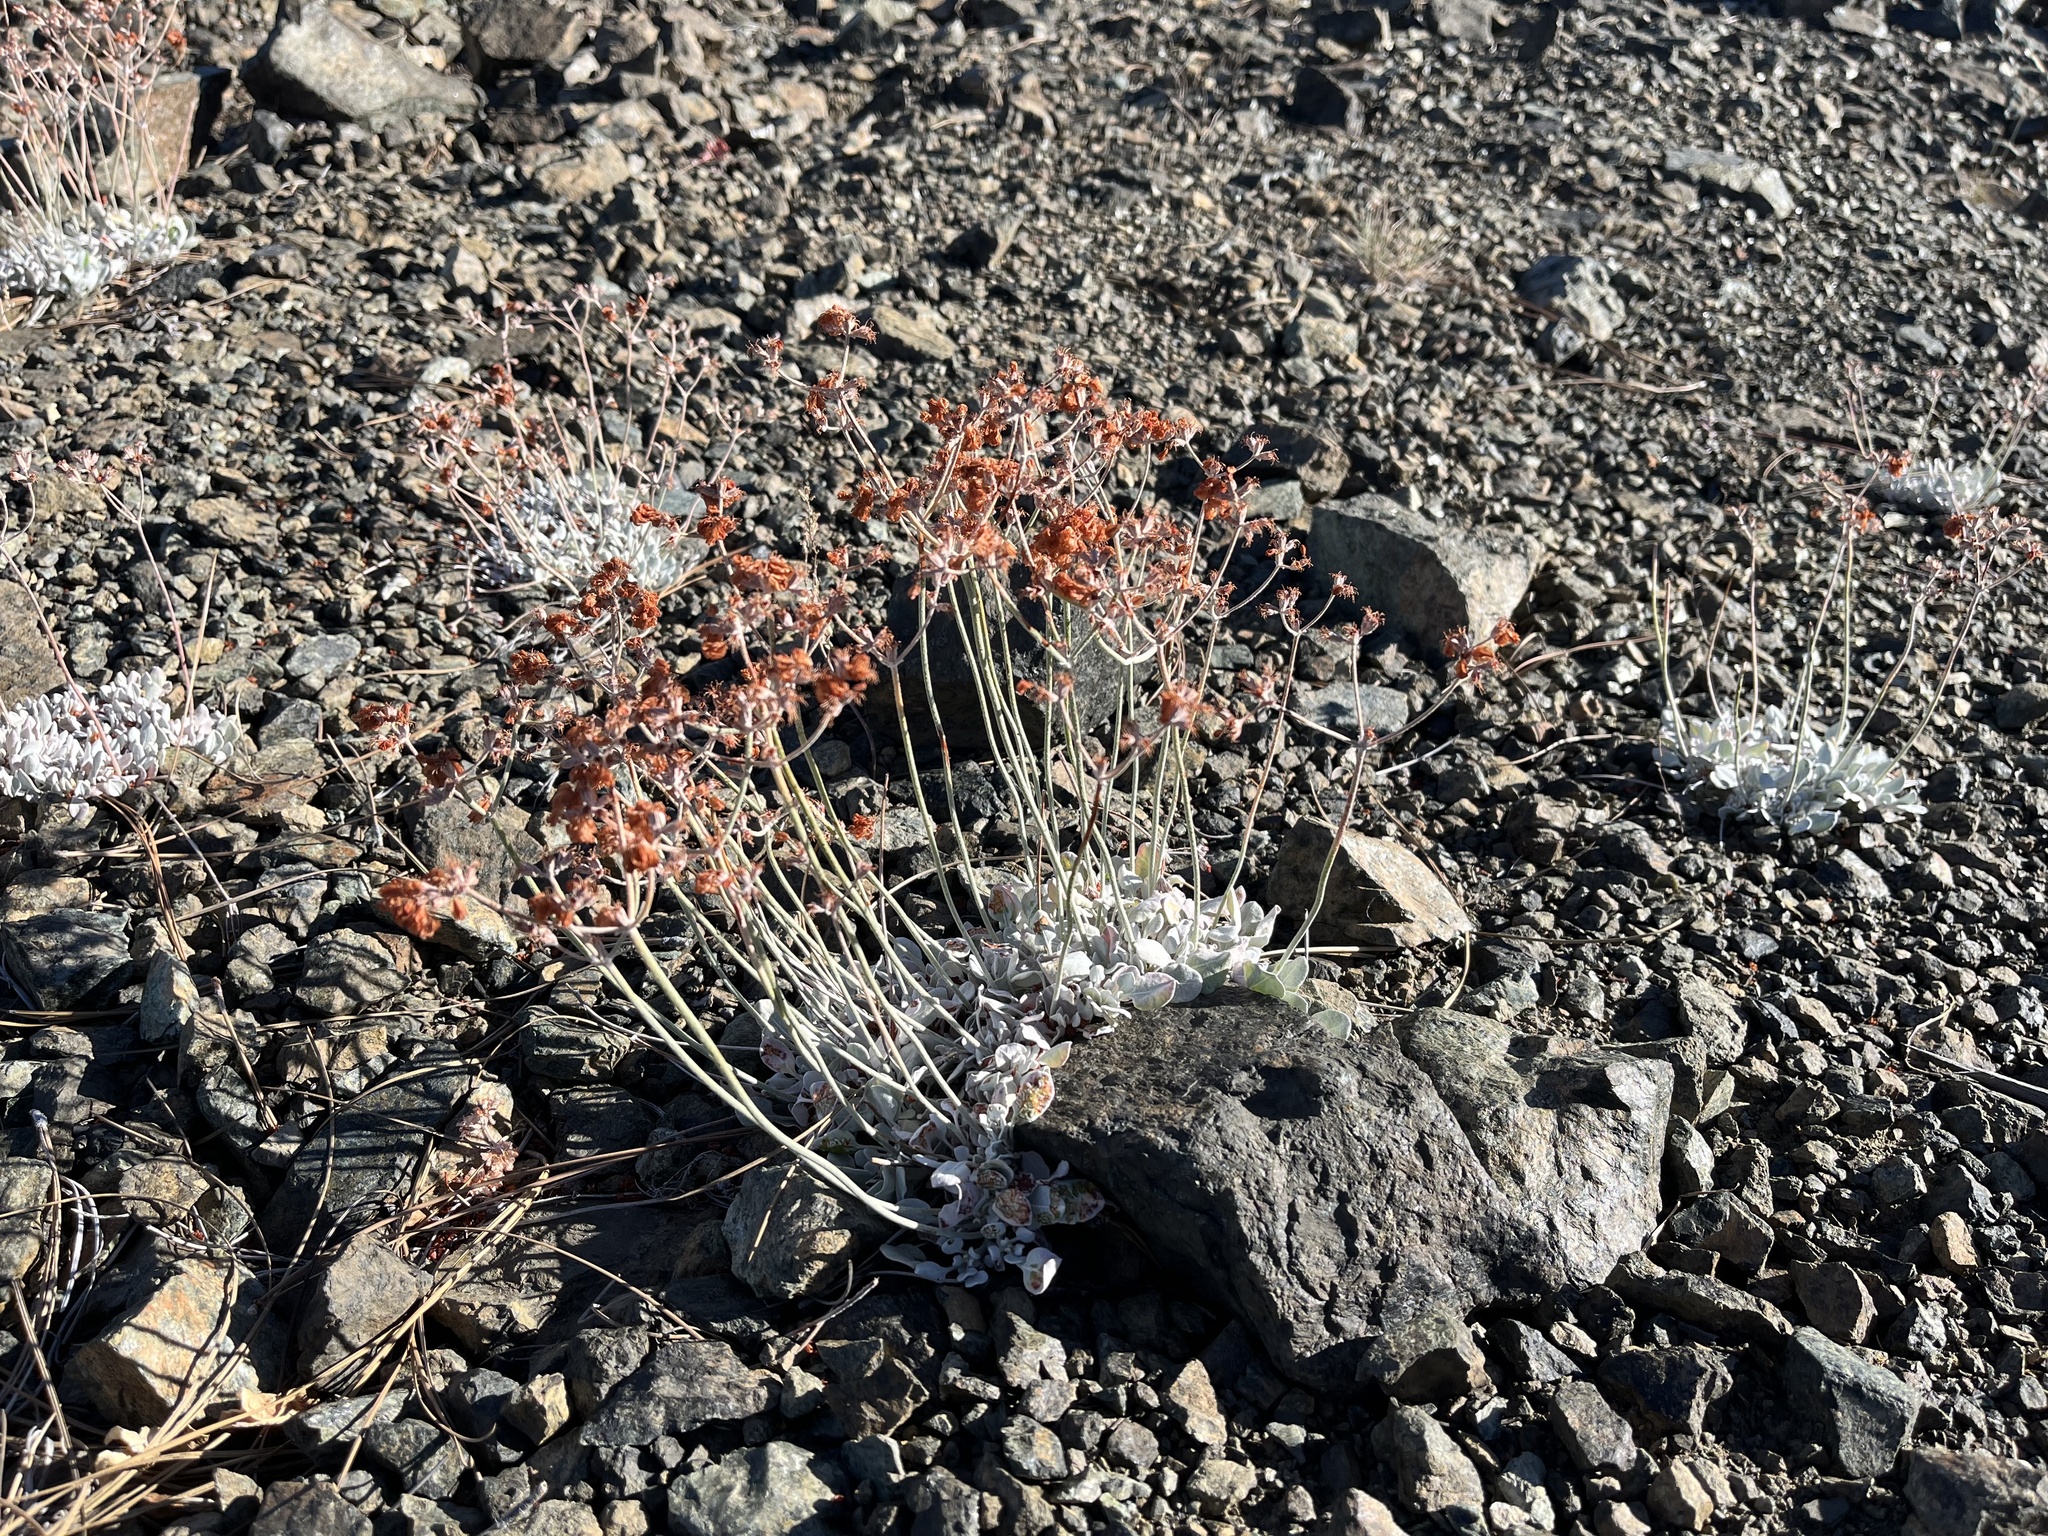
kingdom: Plantae
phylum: Tracheophyta
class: Magnoliopsida
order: Caryophyllales
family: Polygonaceae
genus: Eriogonum
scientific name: Eriogonum strictum
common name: Blue mountain buckwheat
